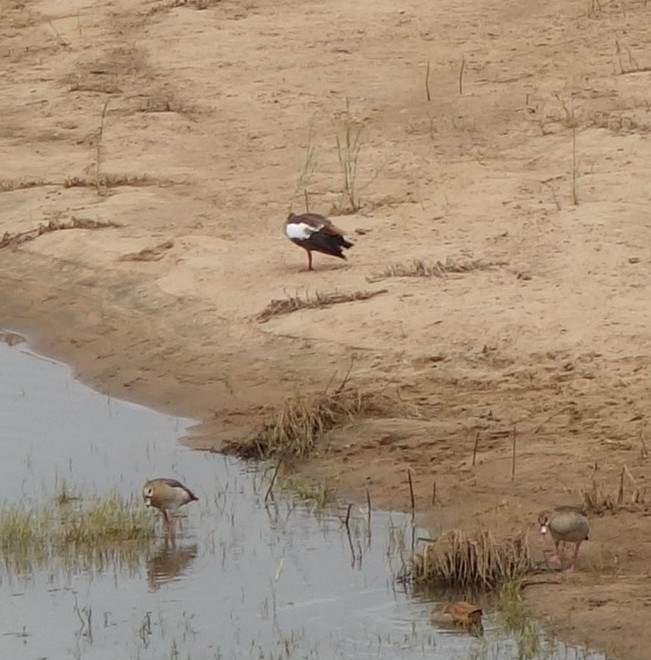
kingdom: Animalia
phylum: Chordata
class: Aves
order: Anseriformes
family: Anatidae
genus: Alopochen
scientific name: Alopochen aegyptiaca
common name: Egyptian goose
